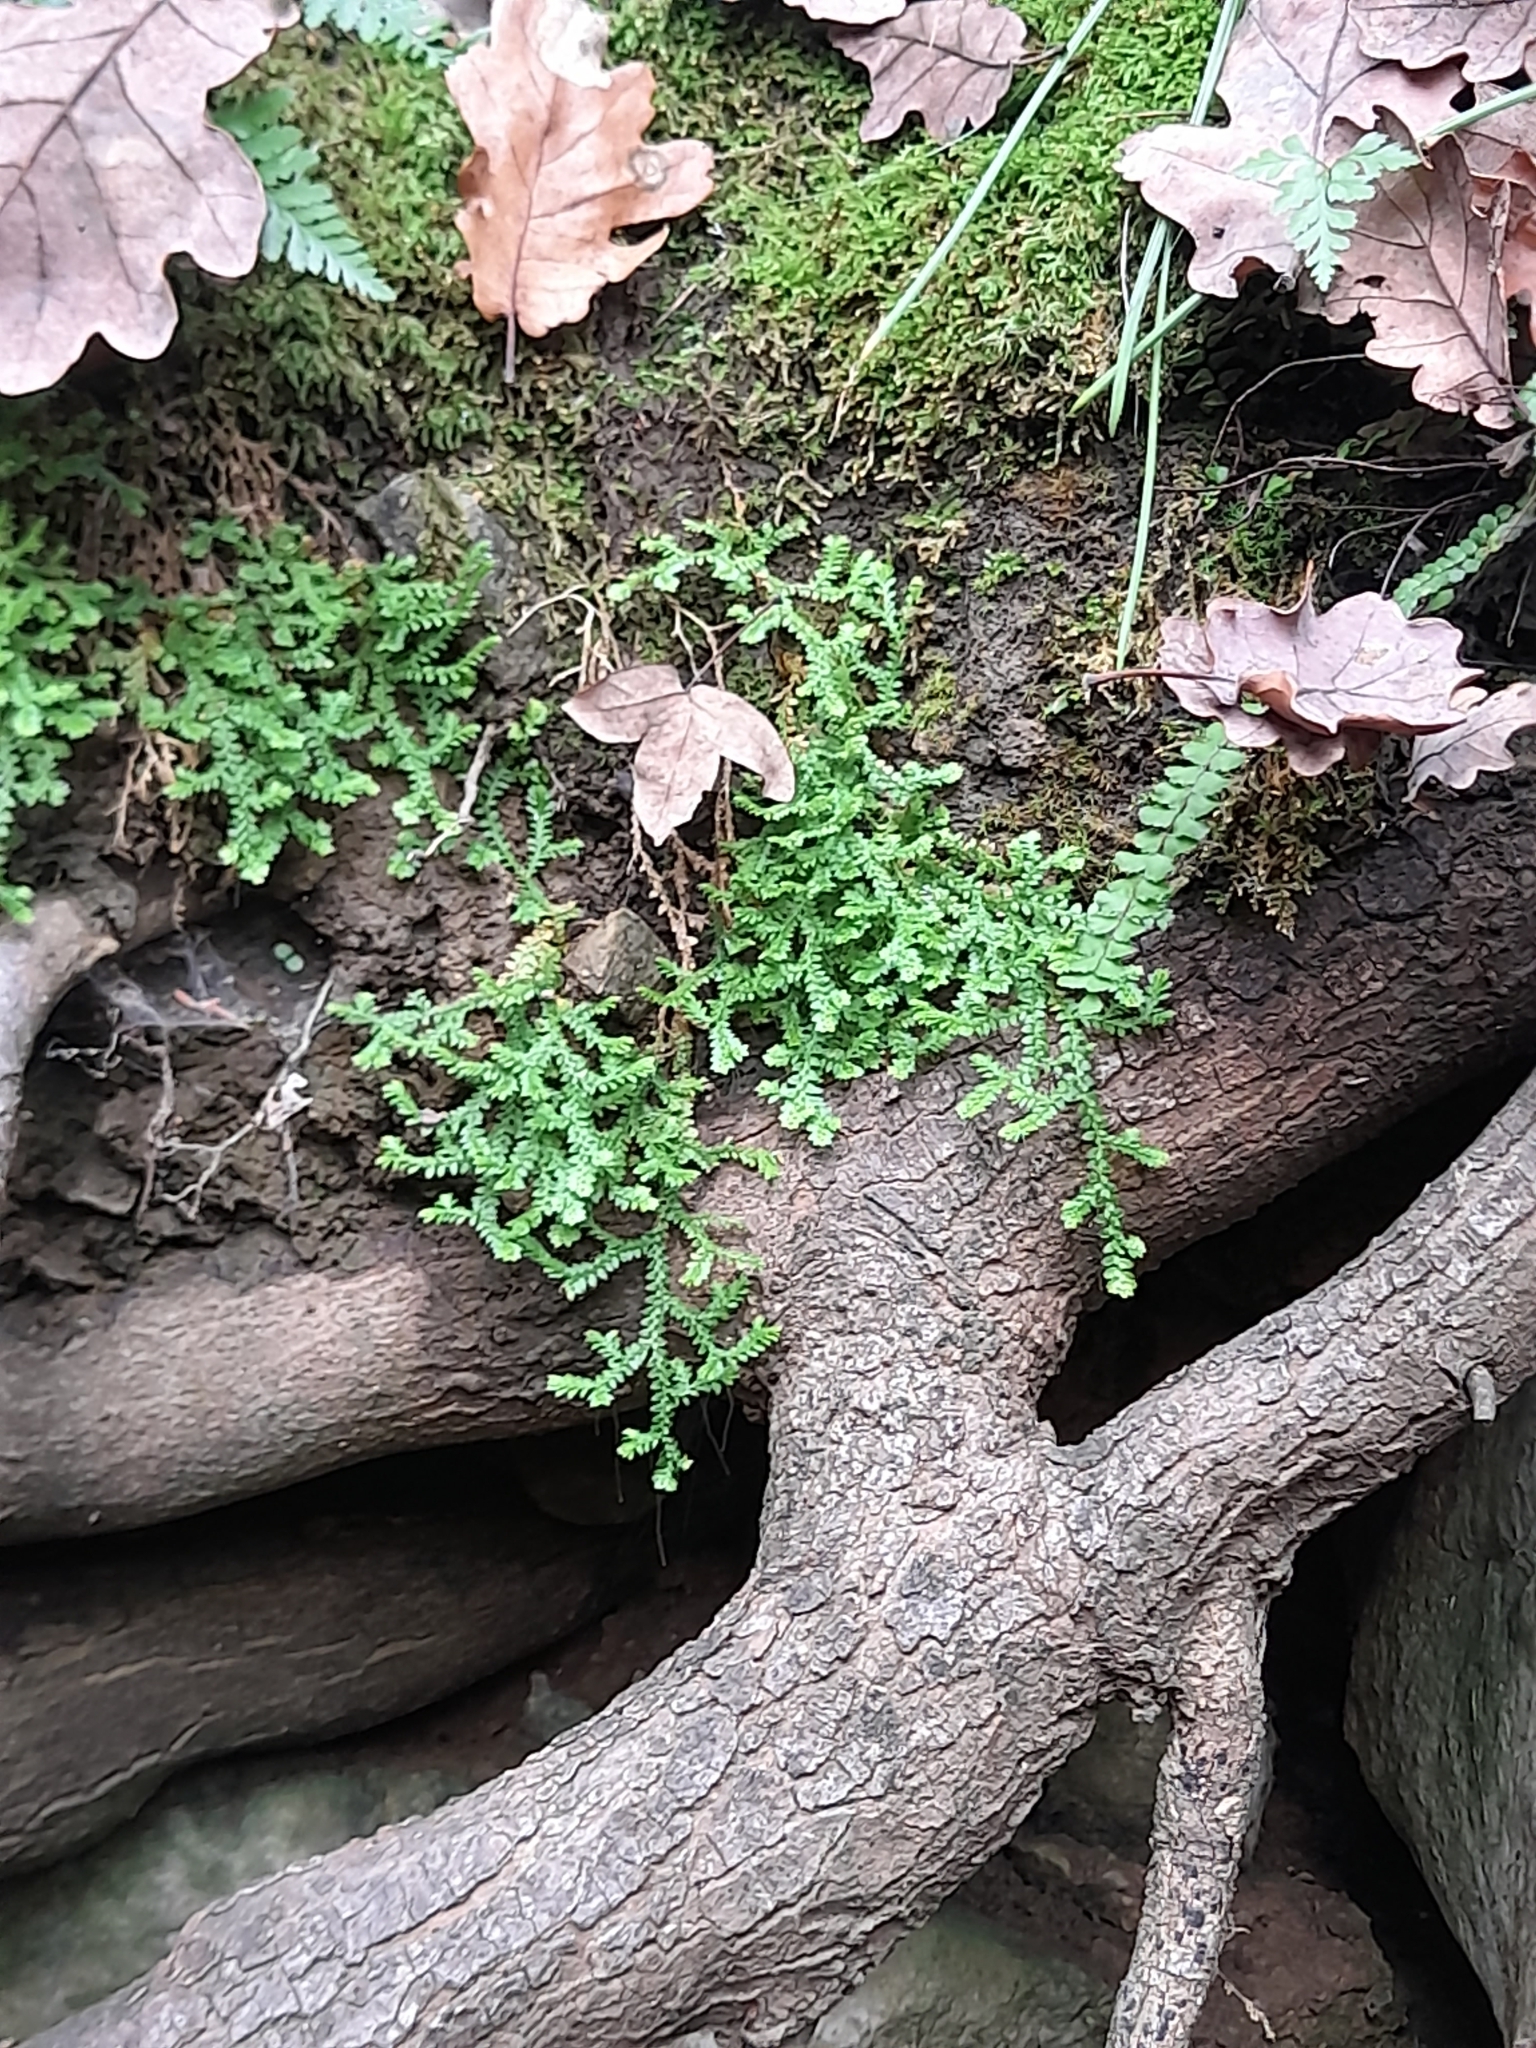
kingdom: Plantae
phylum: Tracheophyta
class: Lycopodiopsida
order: Selaginellales
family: Selaginellaceae
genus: Selaginella
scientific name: Selaginella denticulata
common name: Toothed-leaved clubmoss
